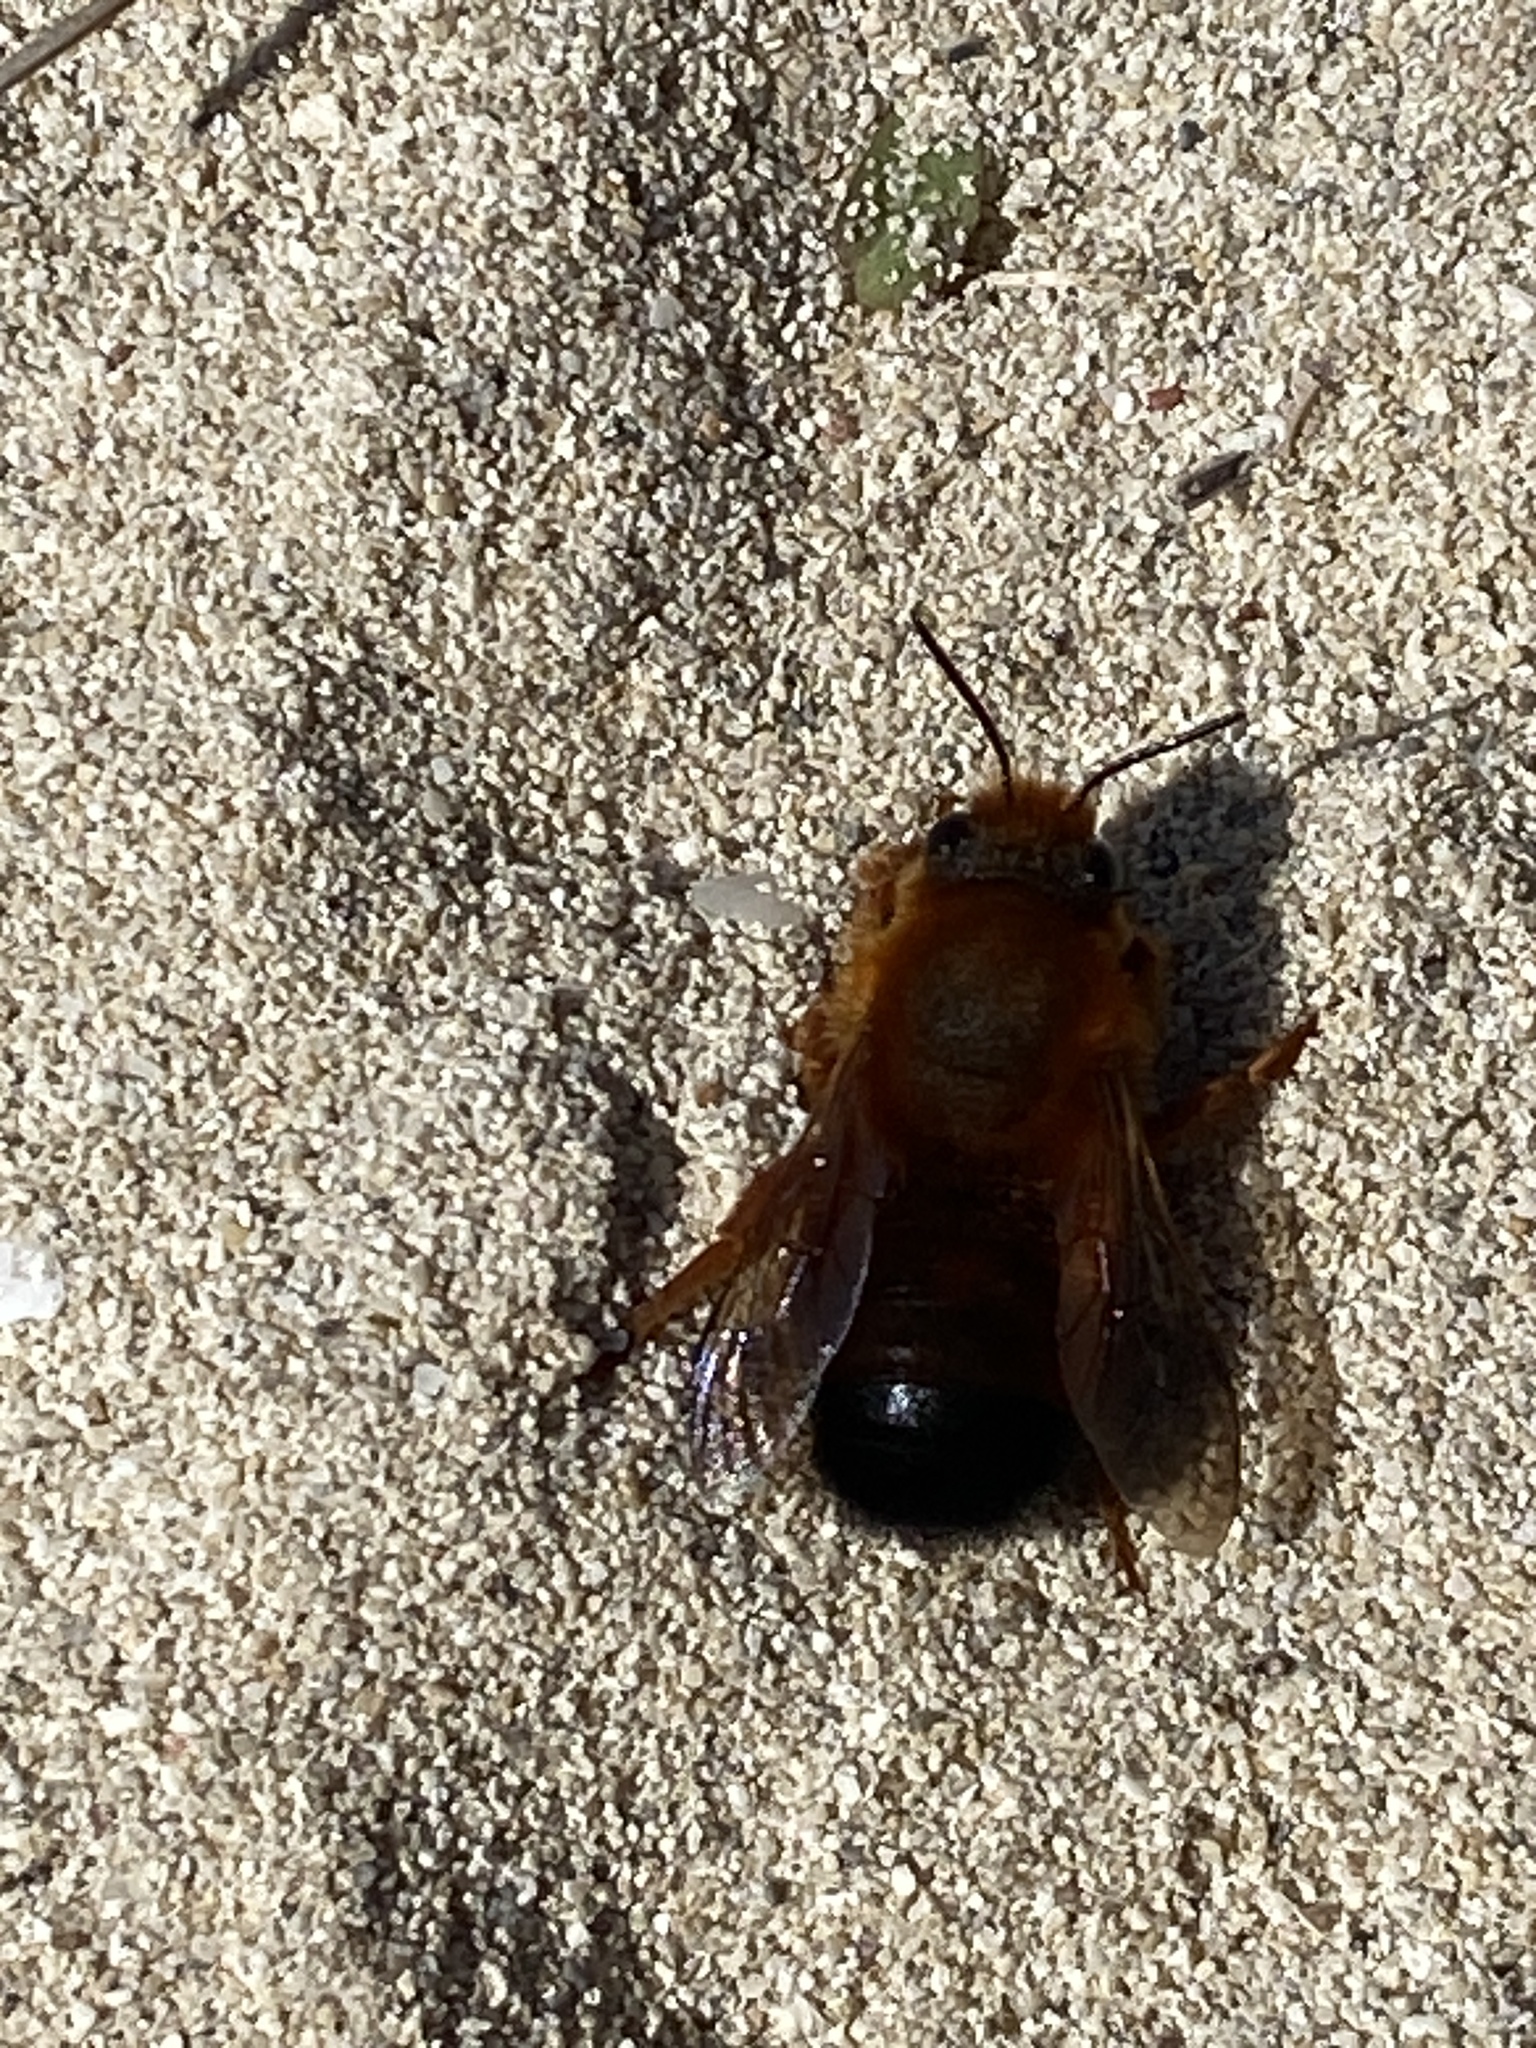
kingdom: Animalia
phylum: Arthropoda
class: Insecta
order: Hymenoptera
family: Megachilidae
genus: Megachile
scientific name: Megachile sicula
